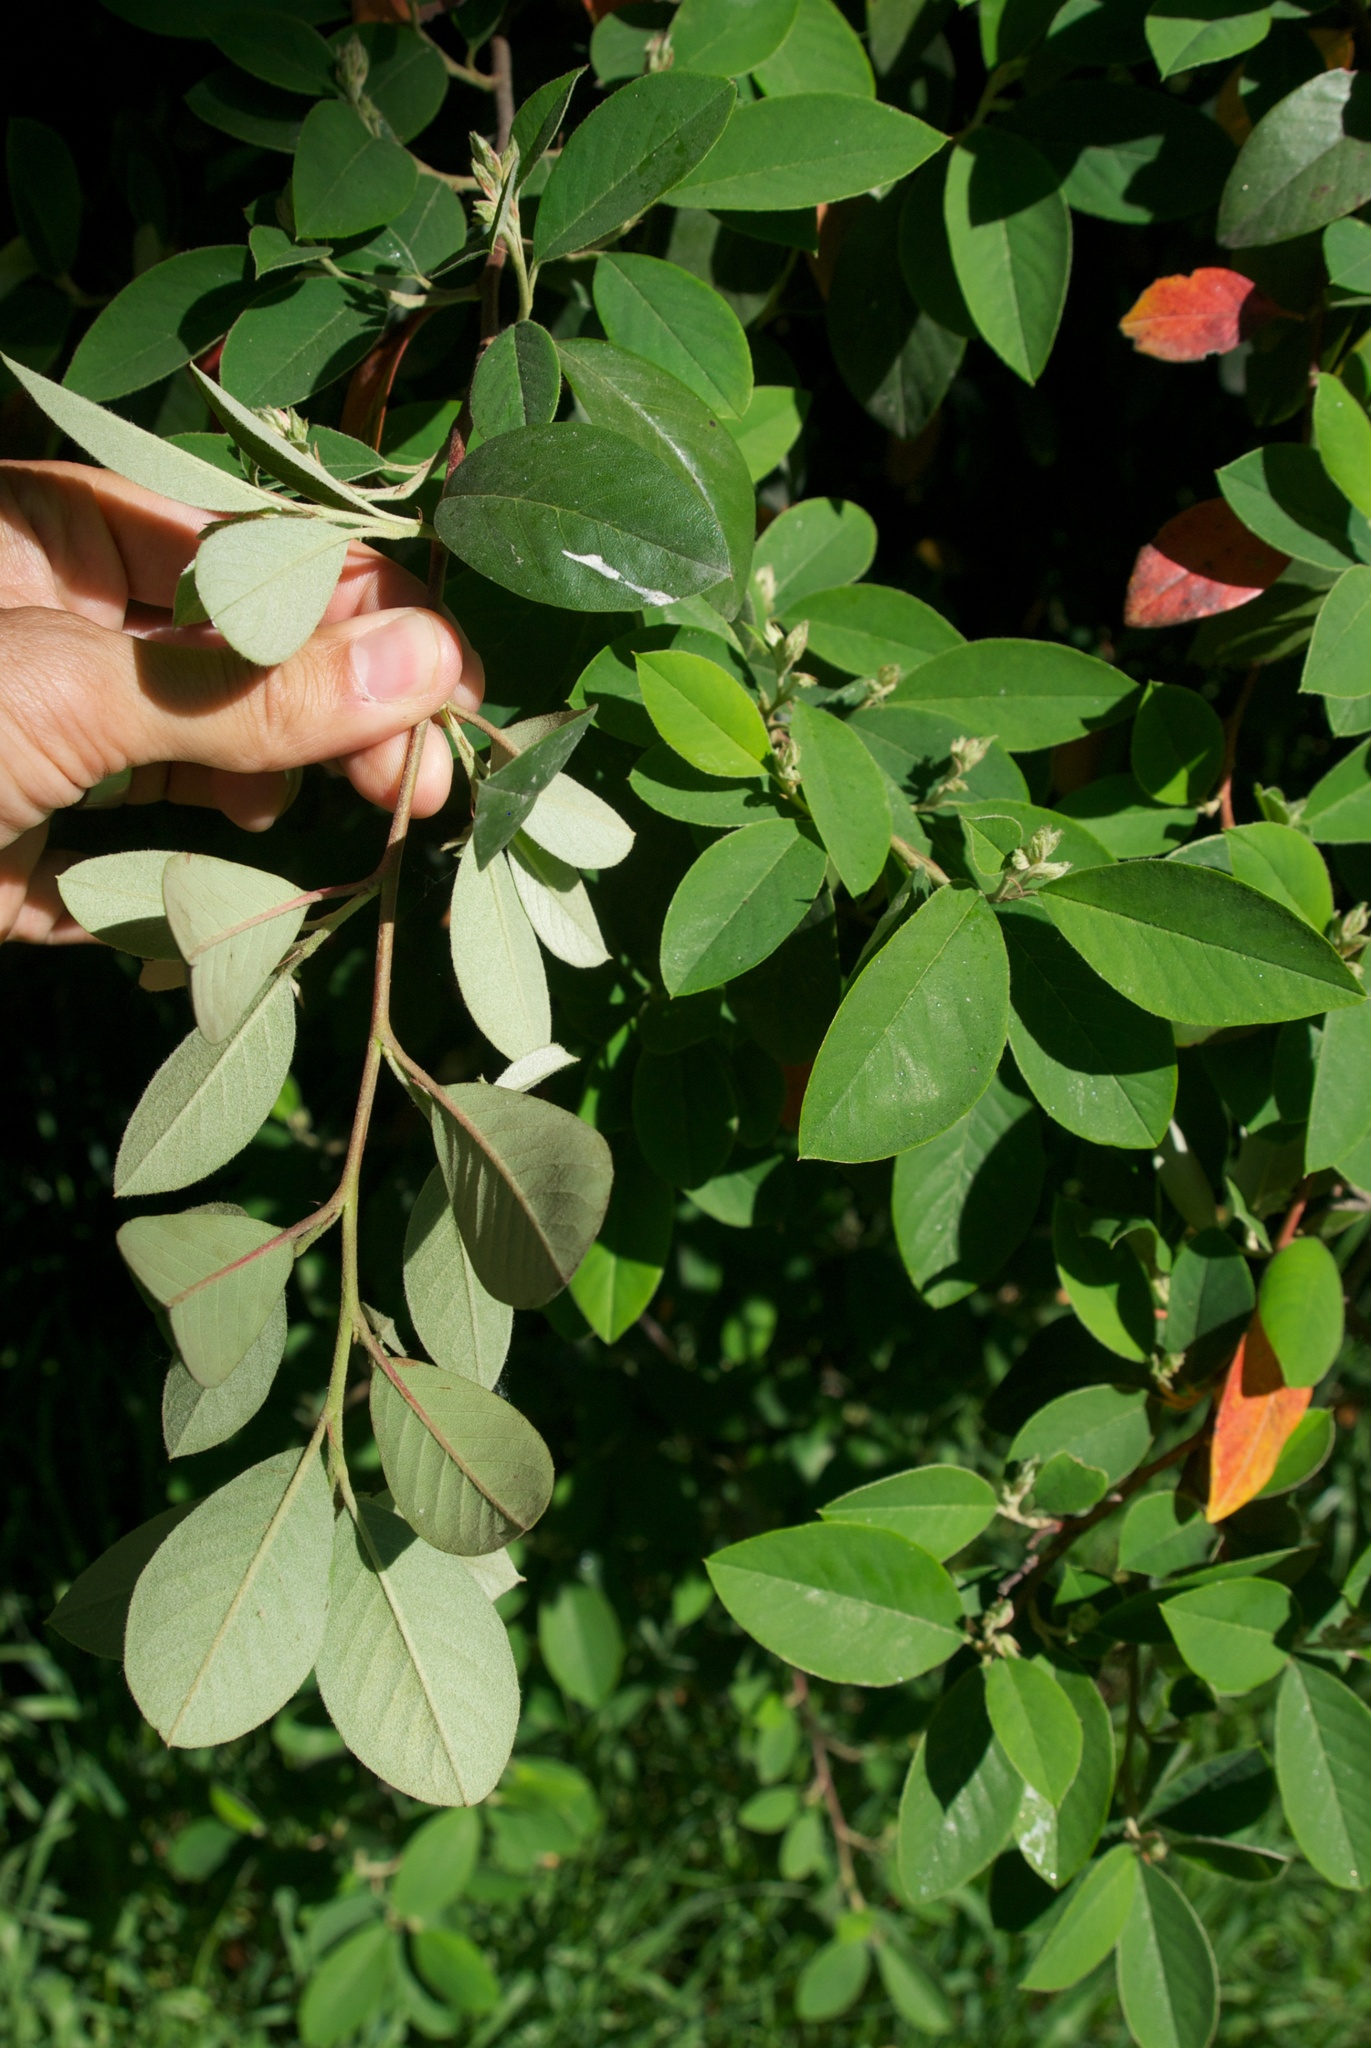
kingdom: Plantae
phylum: Tracheophyta
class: Magnoliopsida
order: Rosales
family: Rosaceae
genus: Cotoneaster
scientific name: Cotoneaster glaucophyllus
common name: Glaucous cotoneaster
